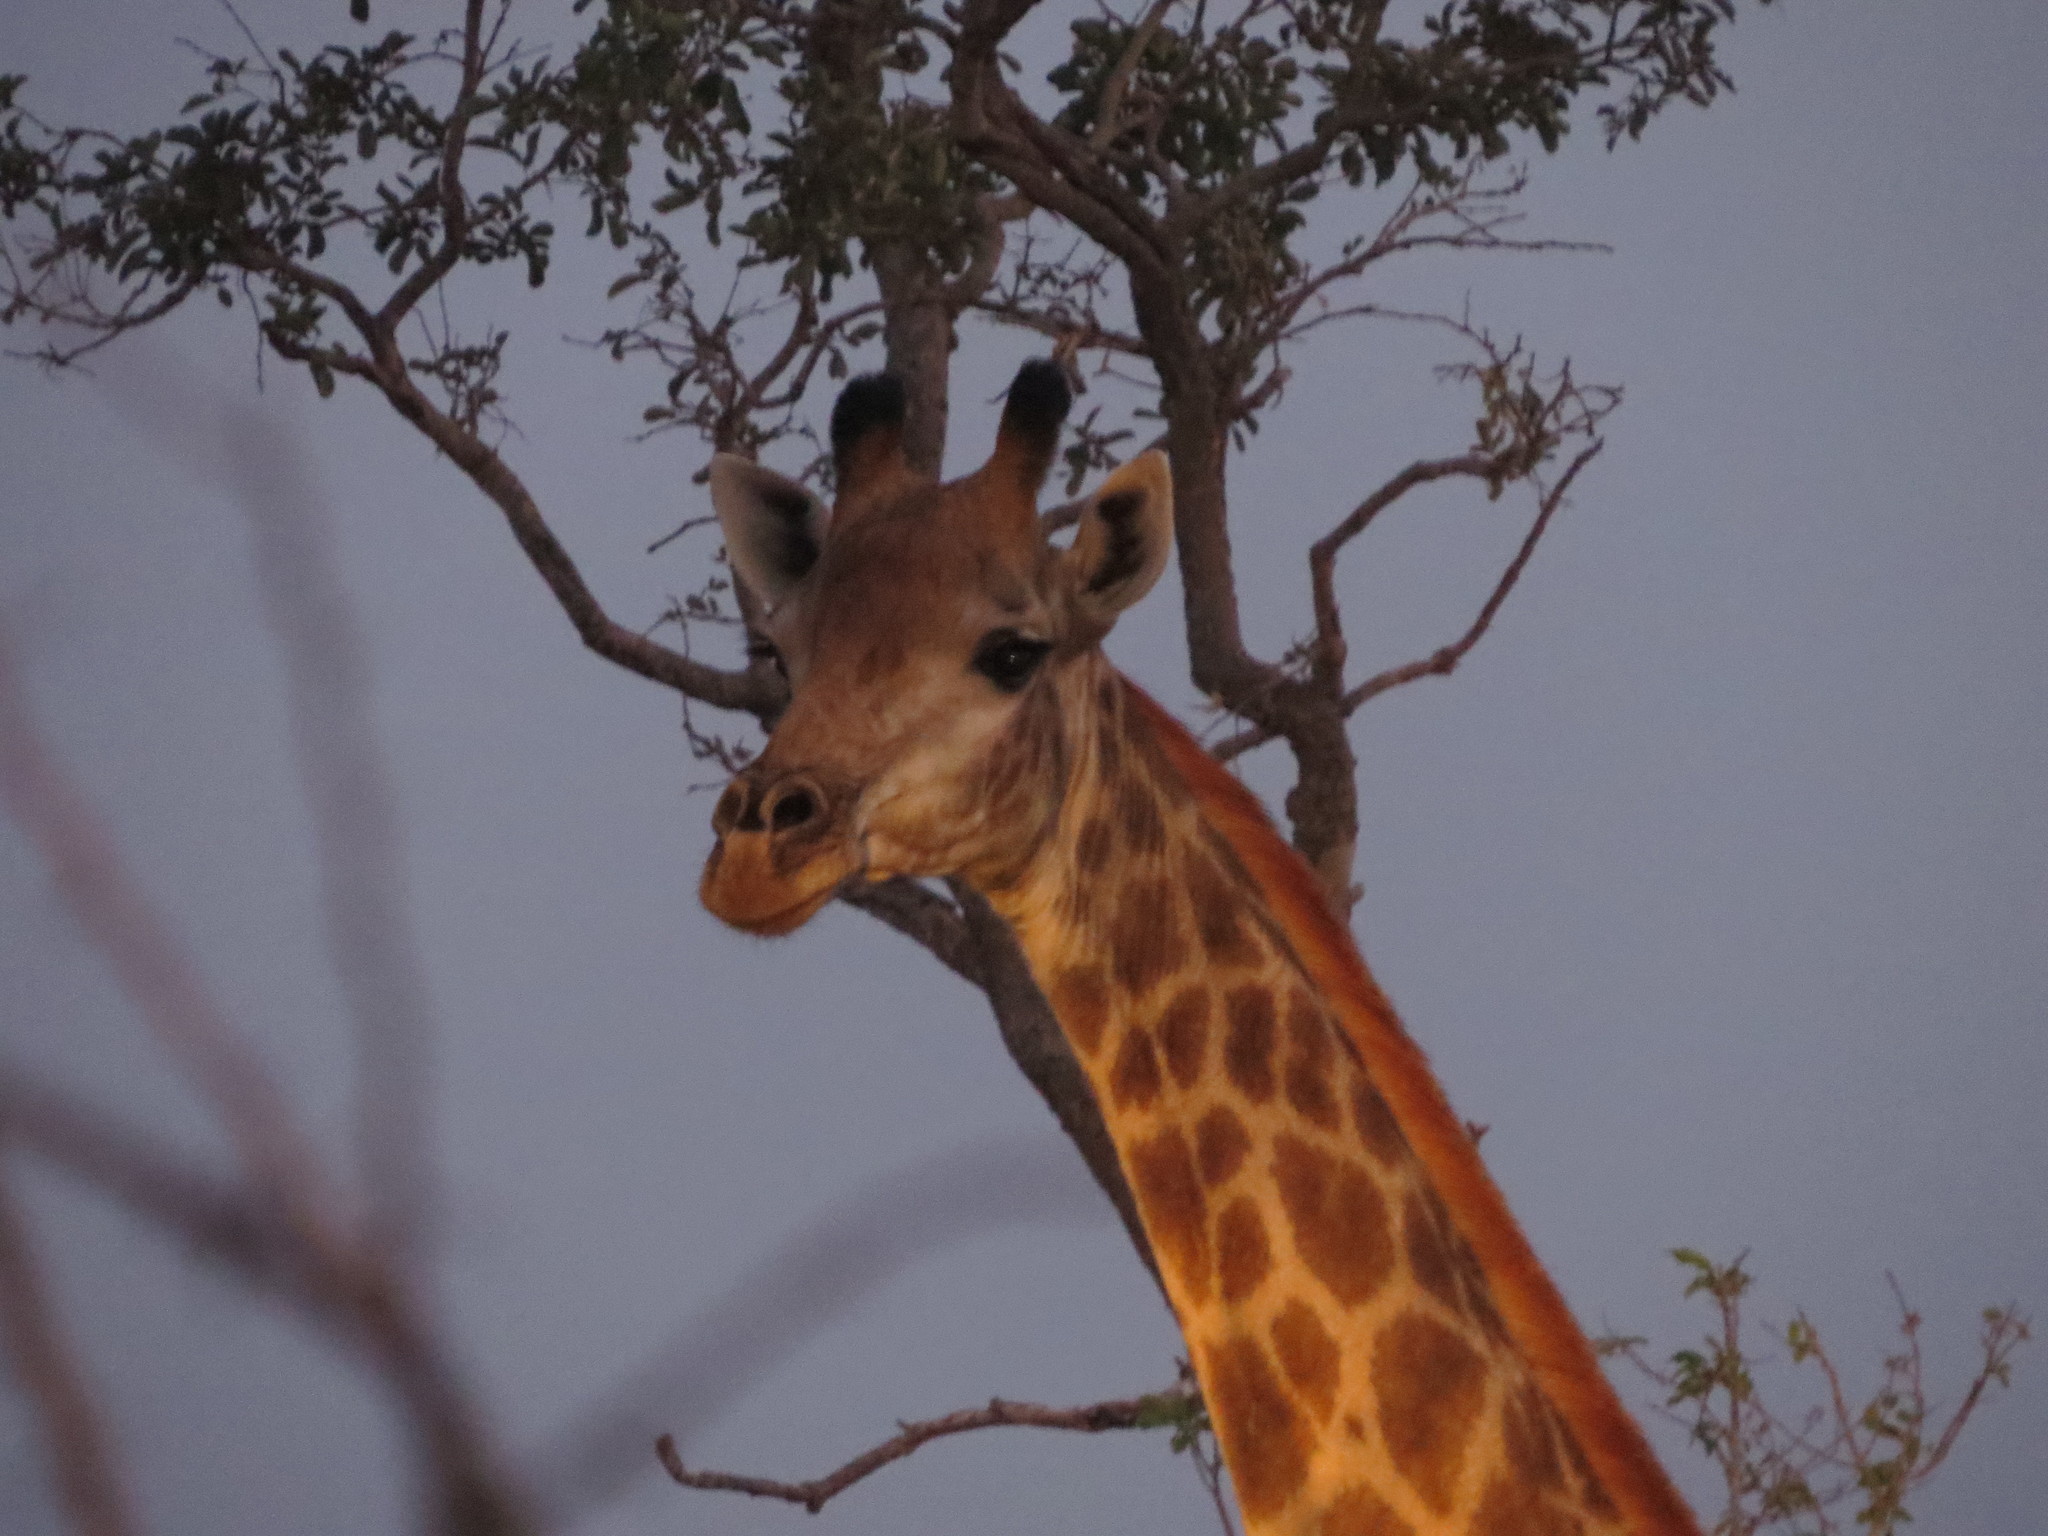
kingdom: Animalia
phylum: Chordata
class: Mammalia
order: Artiodactyla
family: Giraffidae
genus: Giraffa
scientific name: Giraffa giraffa
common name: Southern giraffe
